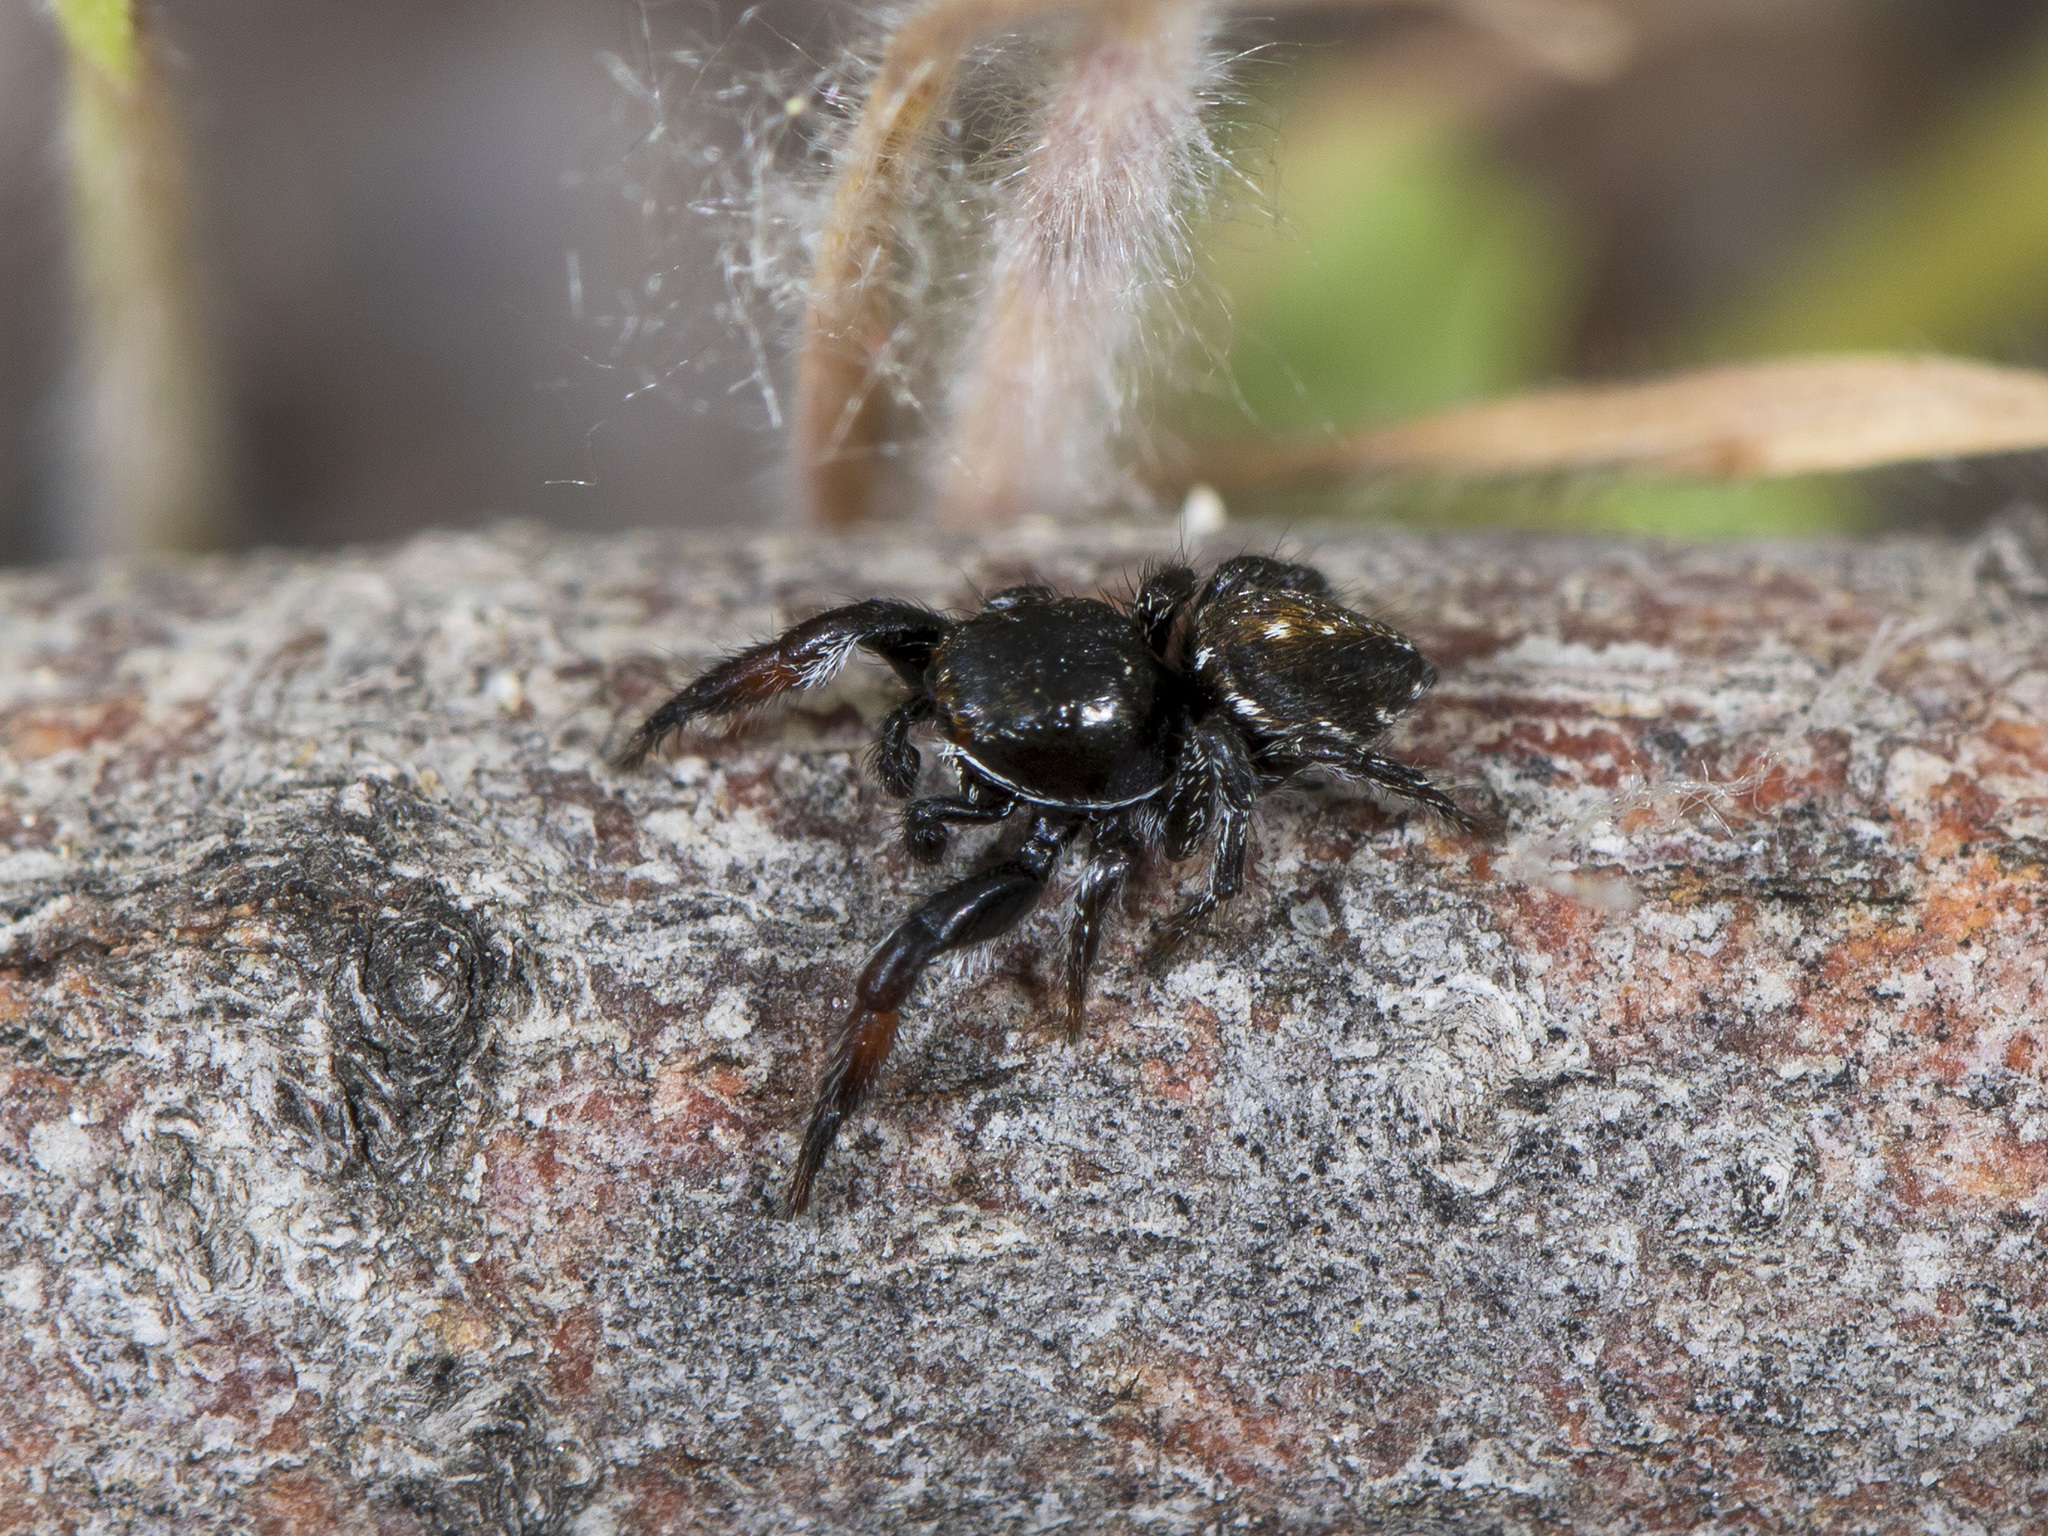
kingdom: Animalia
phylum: Arthropoda
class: Arachnida
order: Araneae
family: Salticidae
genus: Pellenes
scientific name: Pellenes allegrii
